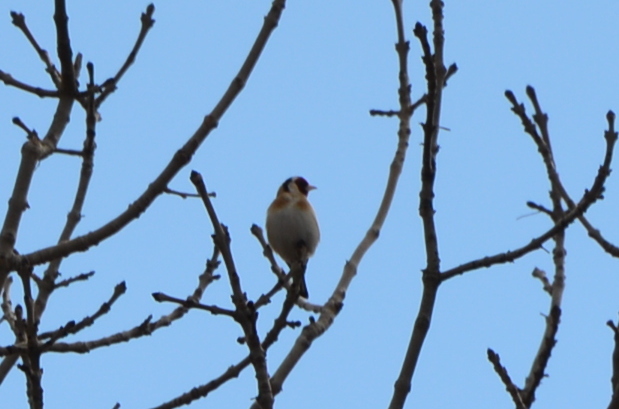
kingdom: Animalia
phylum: Chordata
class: Aves
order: Passeriformes
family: Fringillidae
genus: Carduelis
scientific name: Carduelis carduelis
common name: European goldfinch
